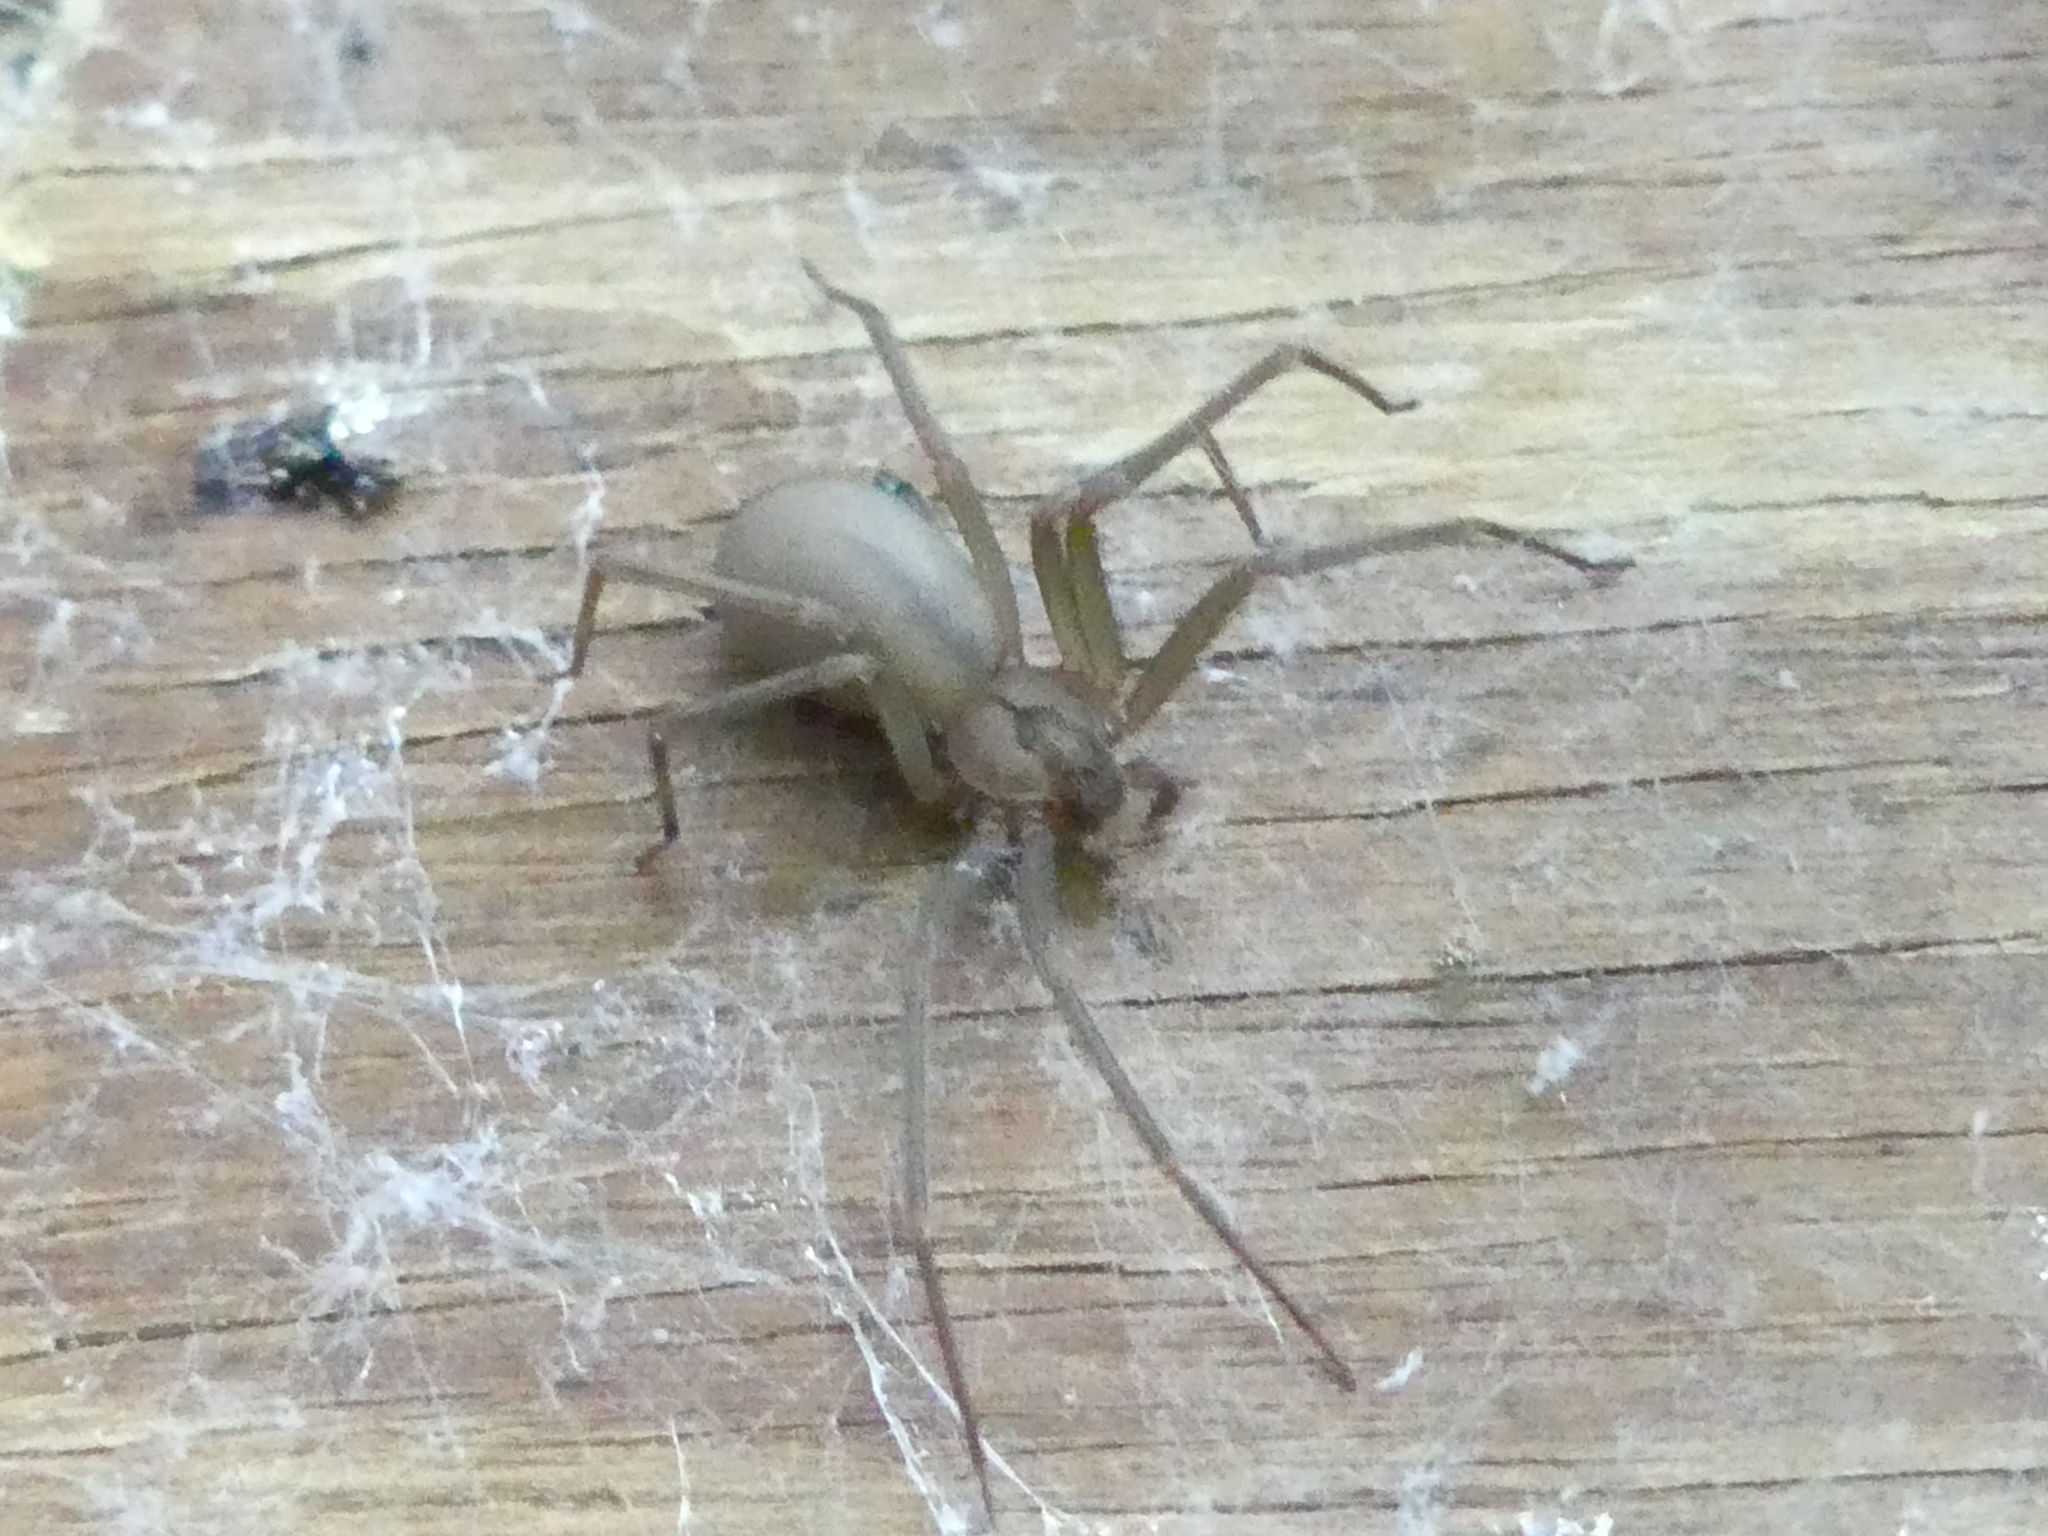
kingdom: Animalia
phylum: Arthropoda
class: Arachnida
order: Araneae
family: Sicariidae
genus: Loxosceles
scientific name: Loxosceles reclusa
